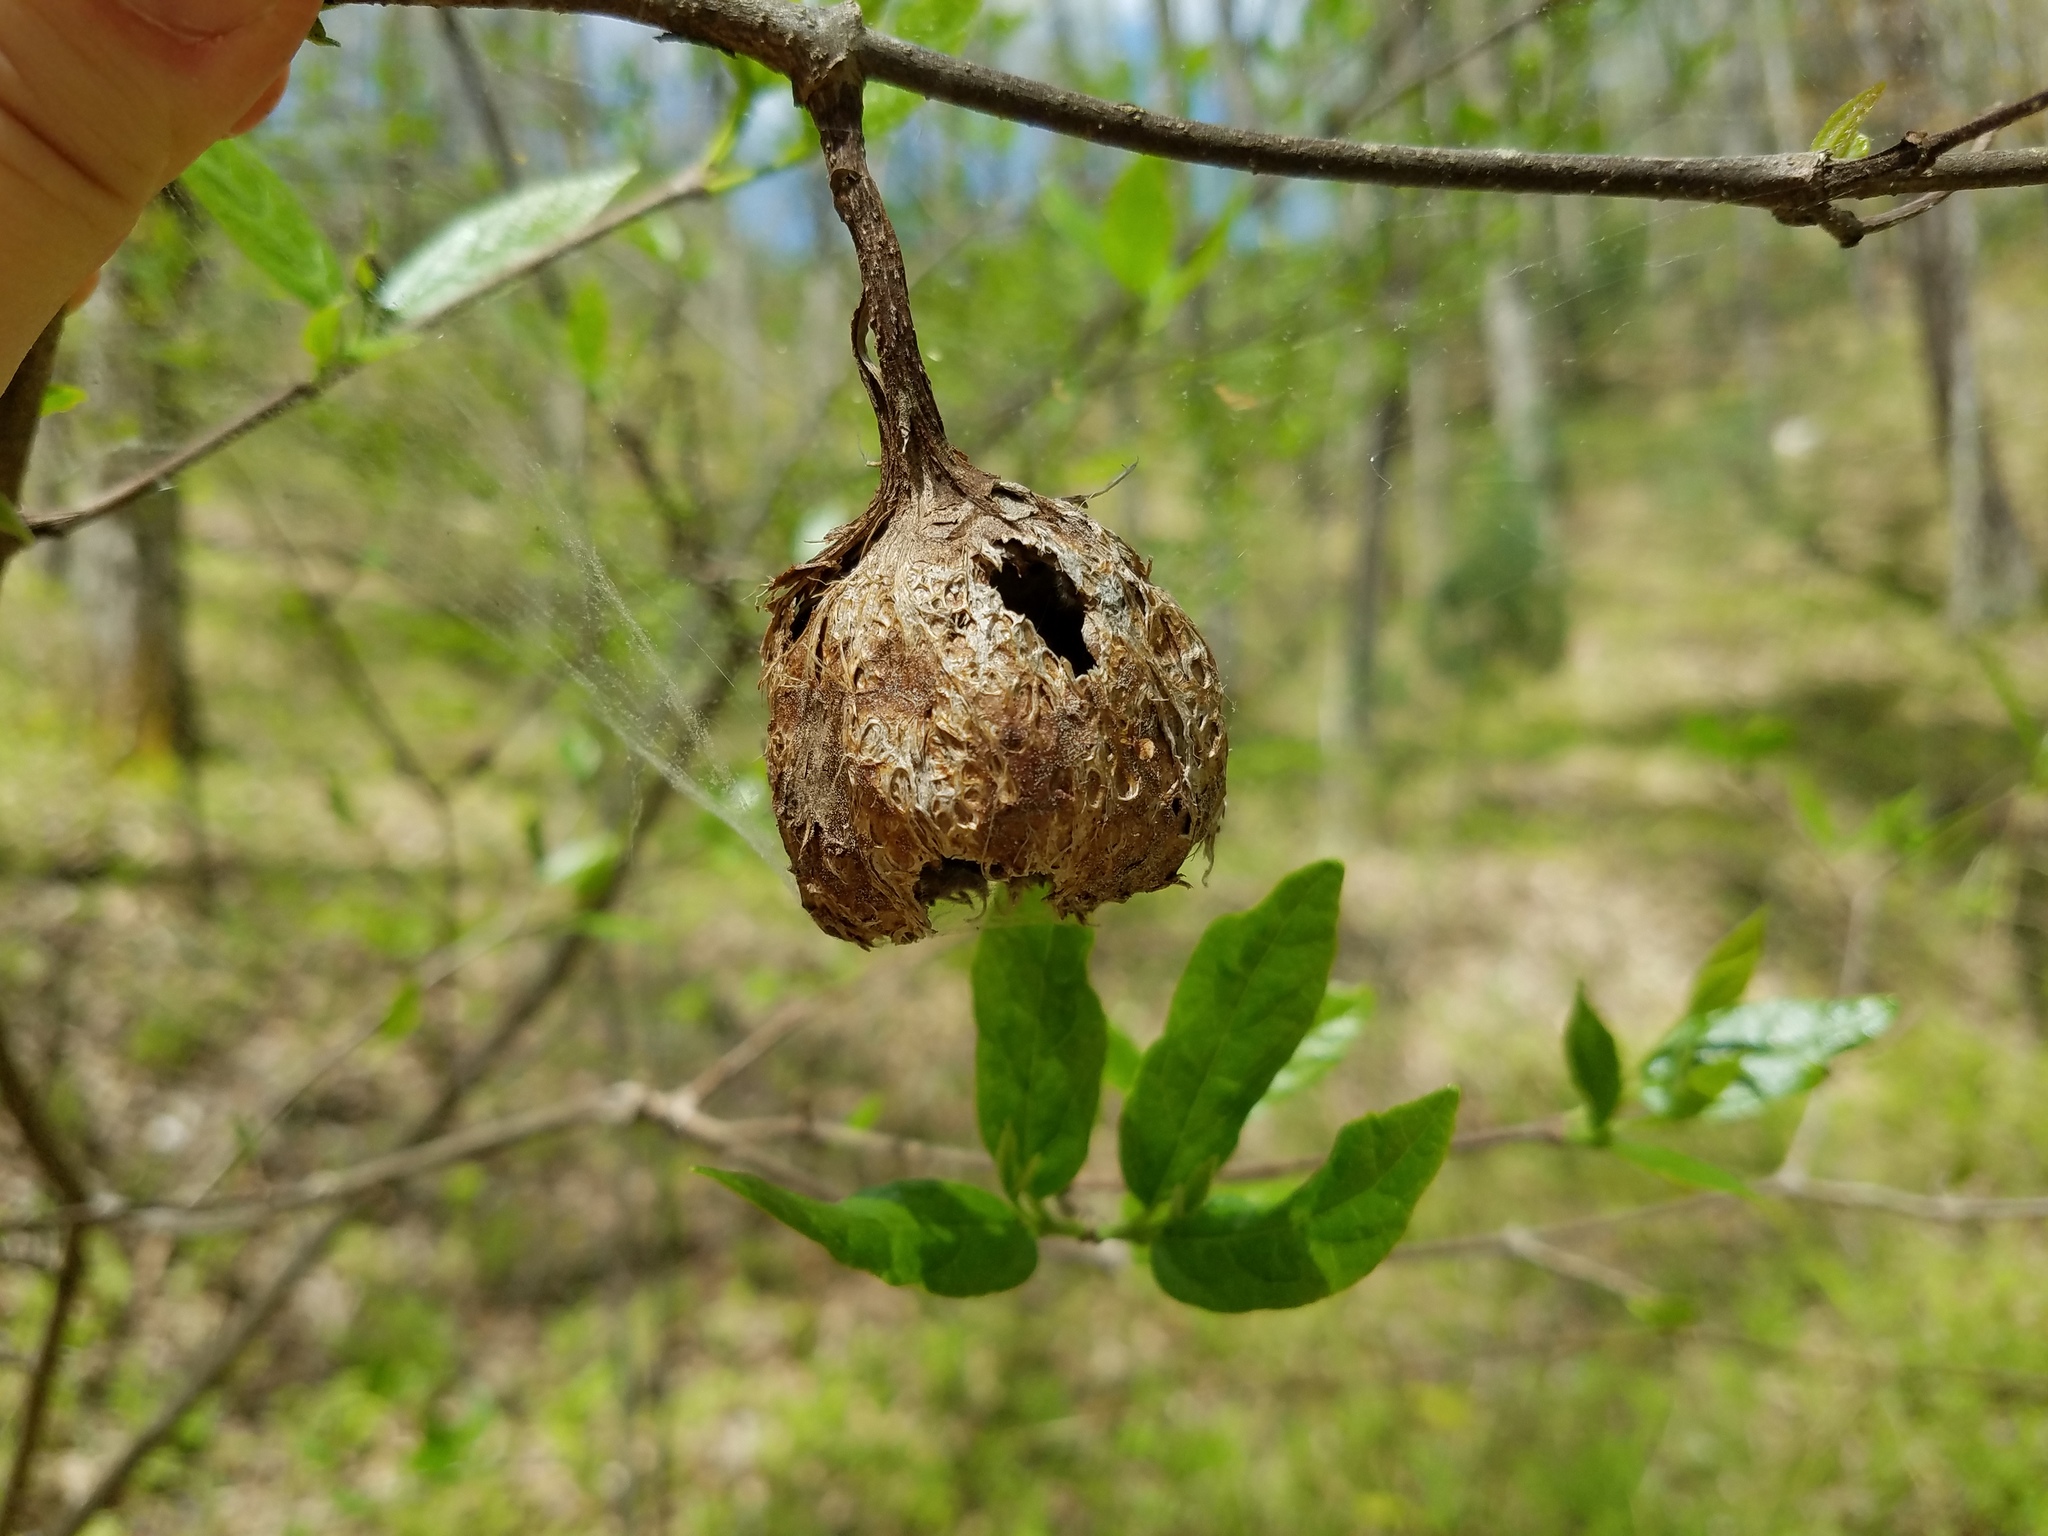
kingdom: Plantae
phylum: Tracheophyta
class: Magnoliopsida
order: Laurales
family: Calycanthaceae
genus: Calycanthus
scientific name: Calycanthus floridus
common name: Carolina-allspice
